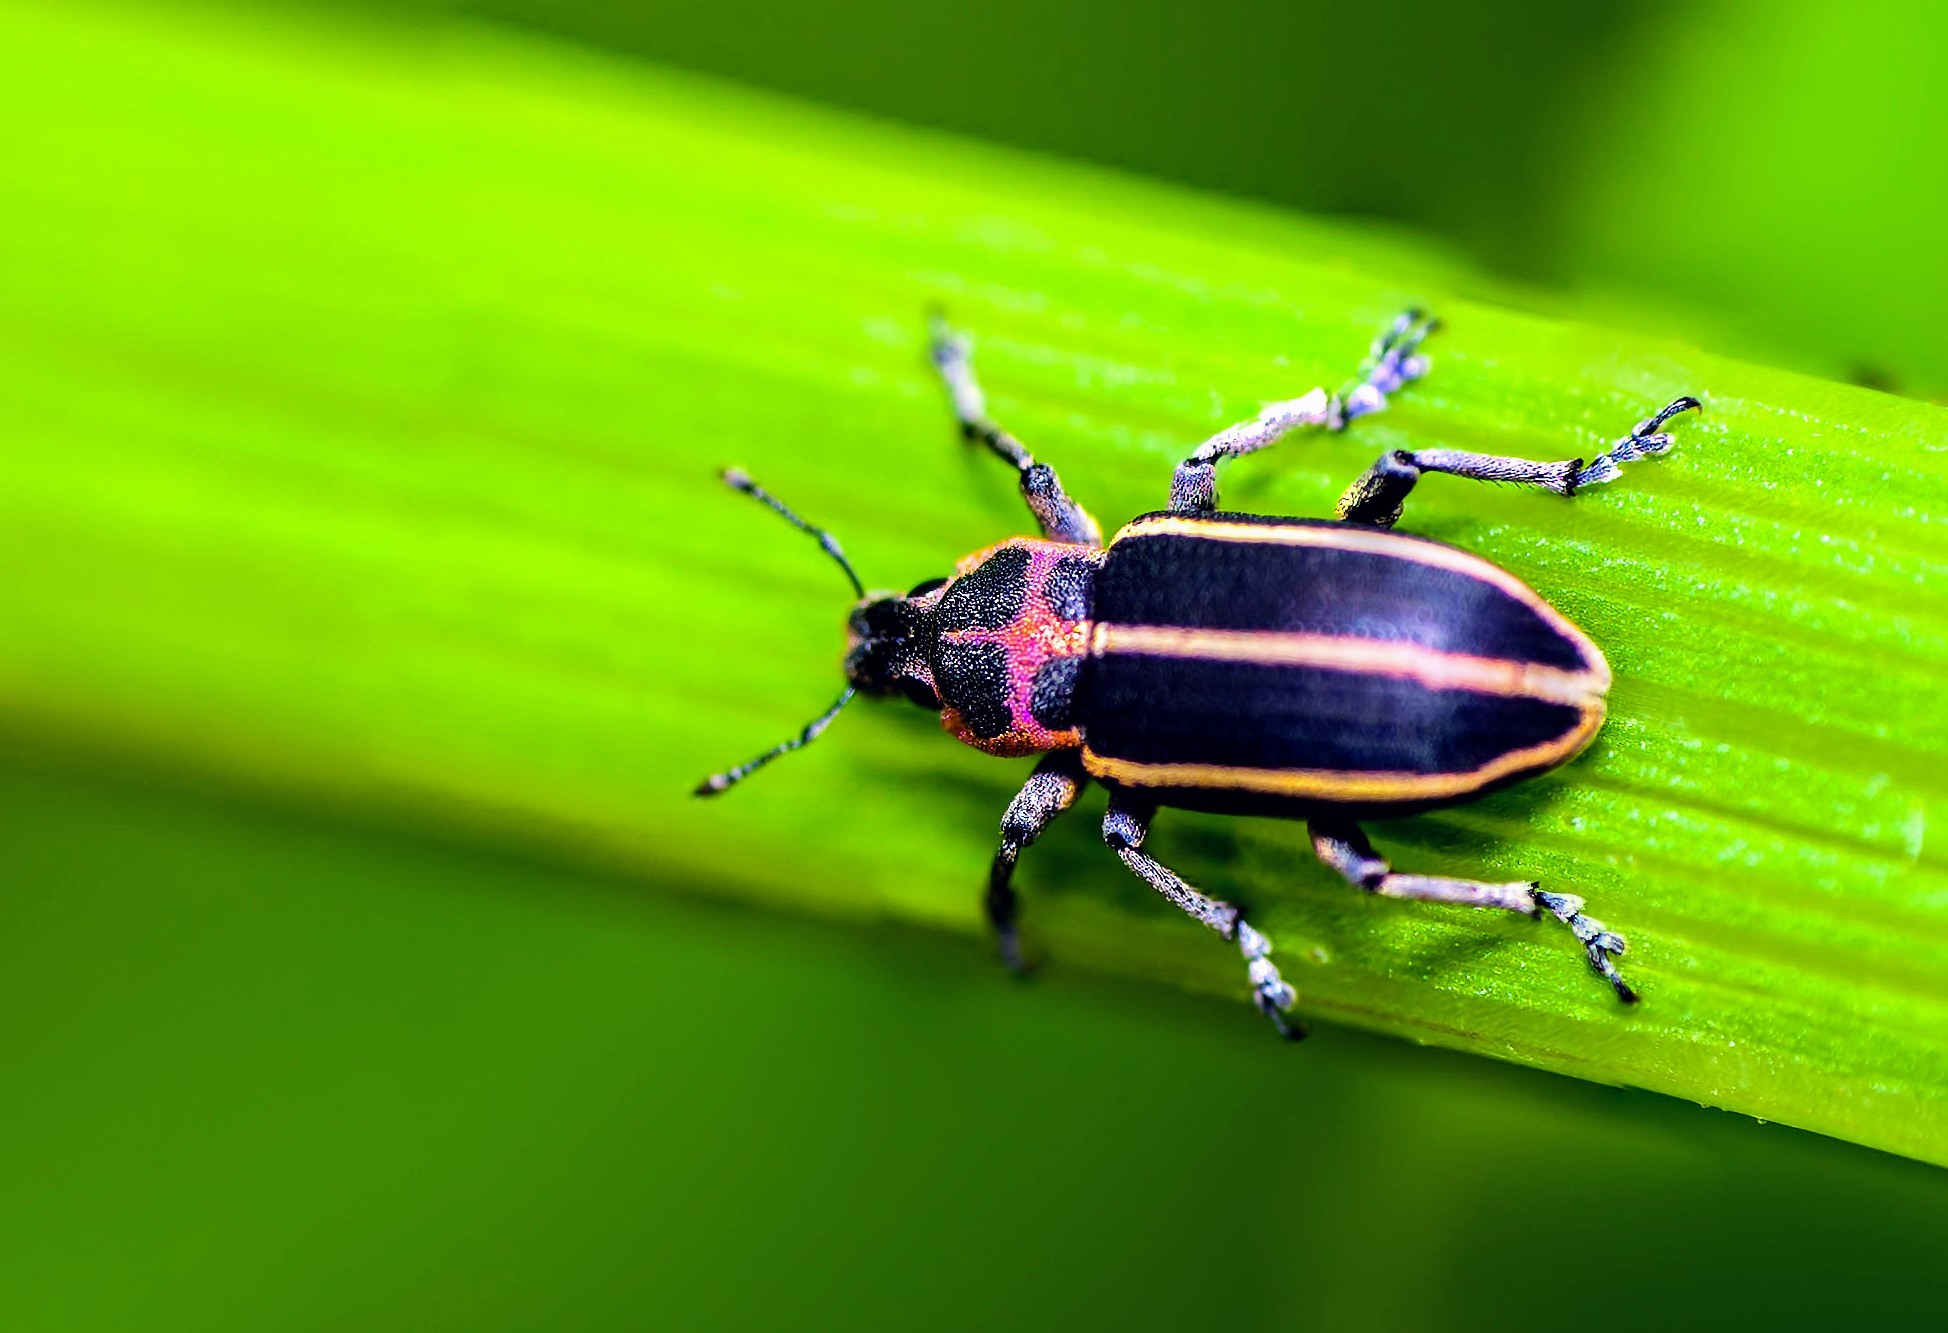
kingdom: Animalia
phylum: Arthropoda
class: Insecta
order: Coleoptera
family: Curculionidae
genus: Eudiagogus
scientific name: Eudiagogus maryae
